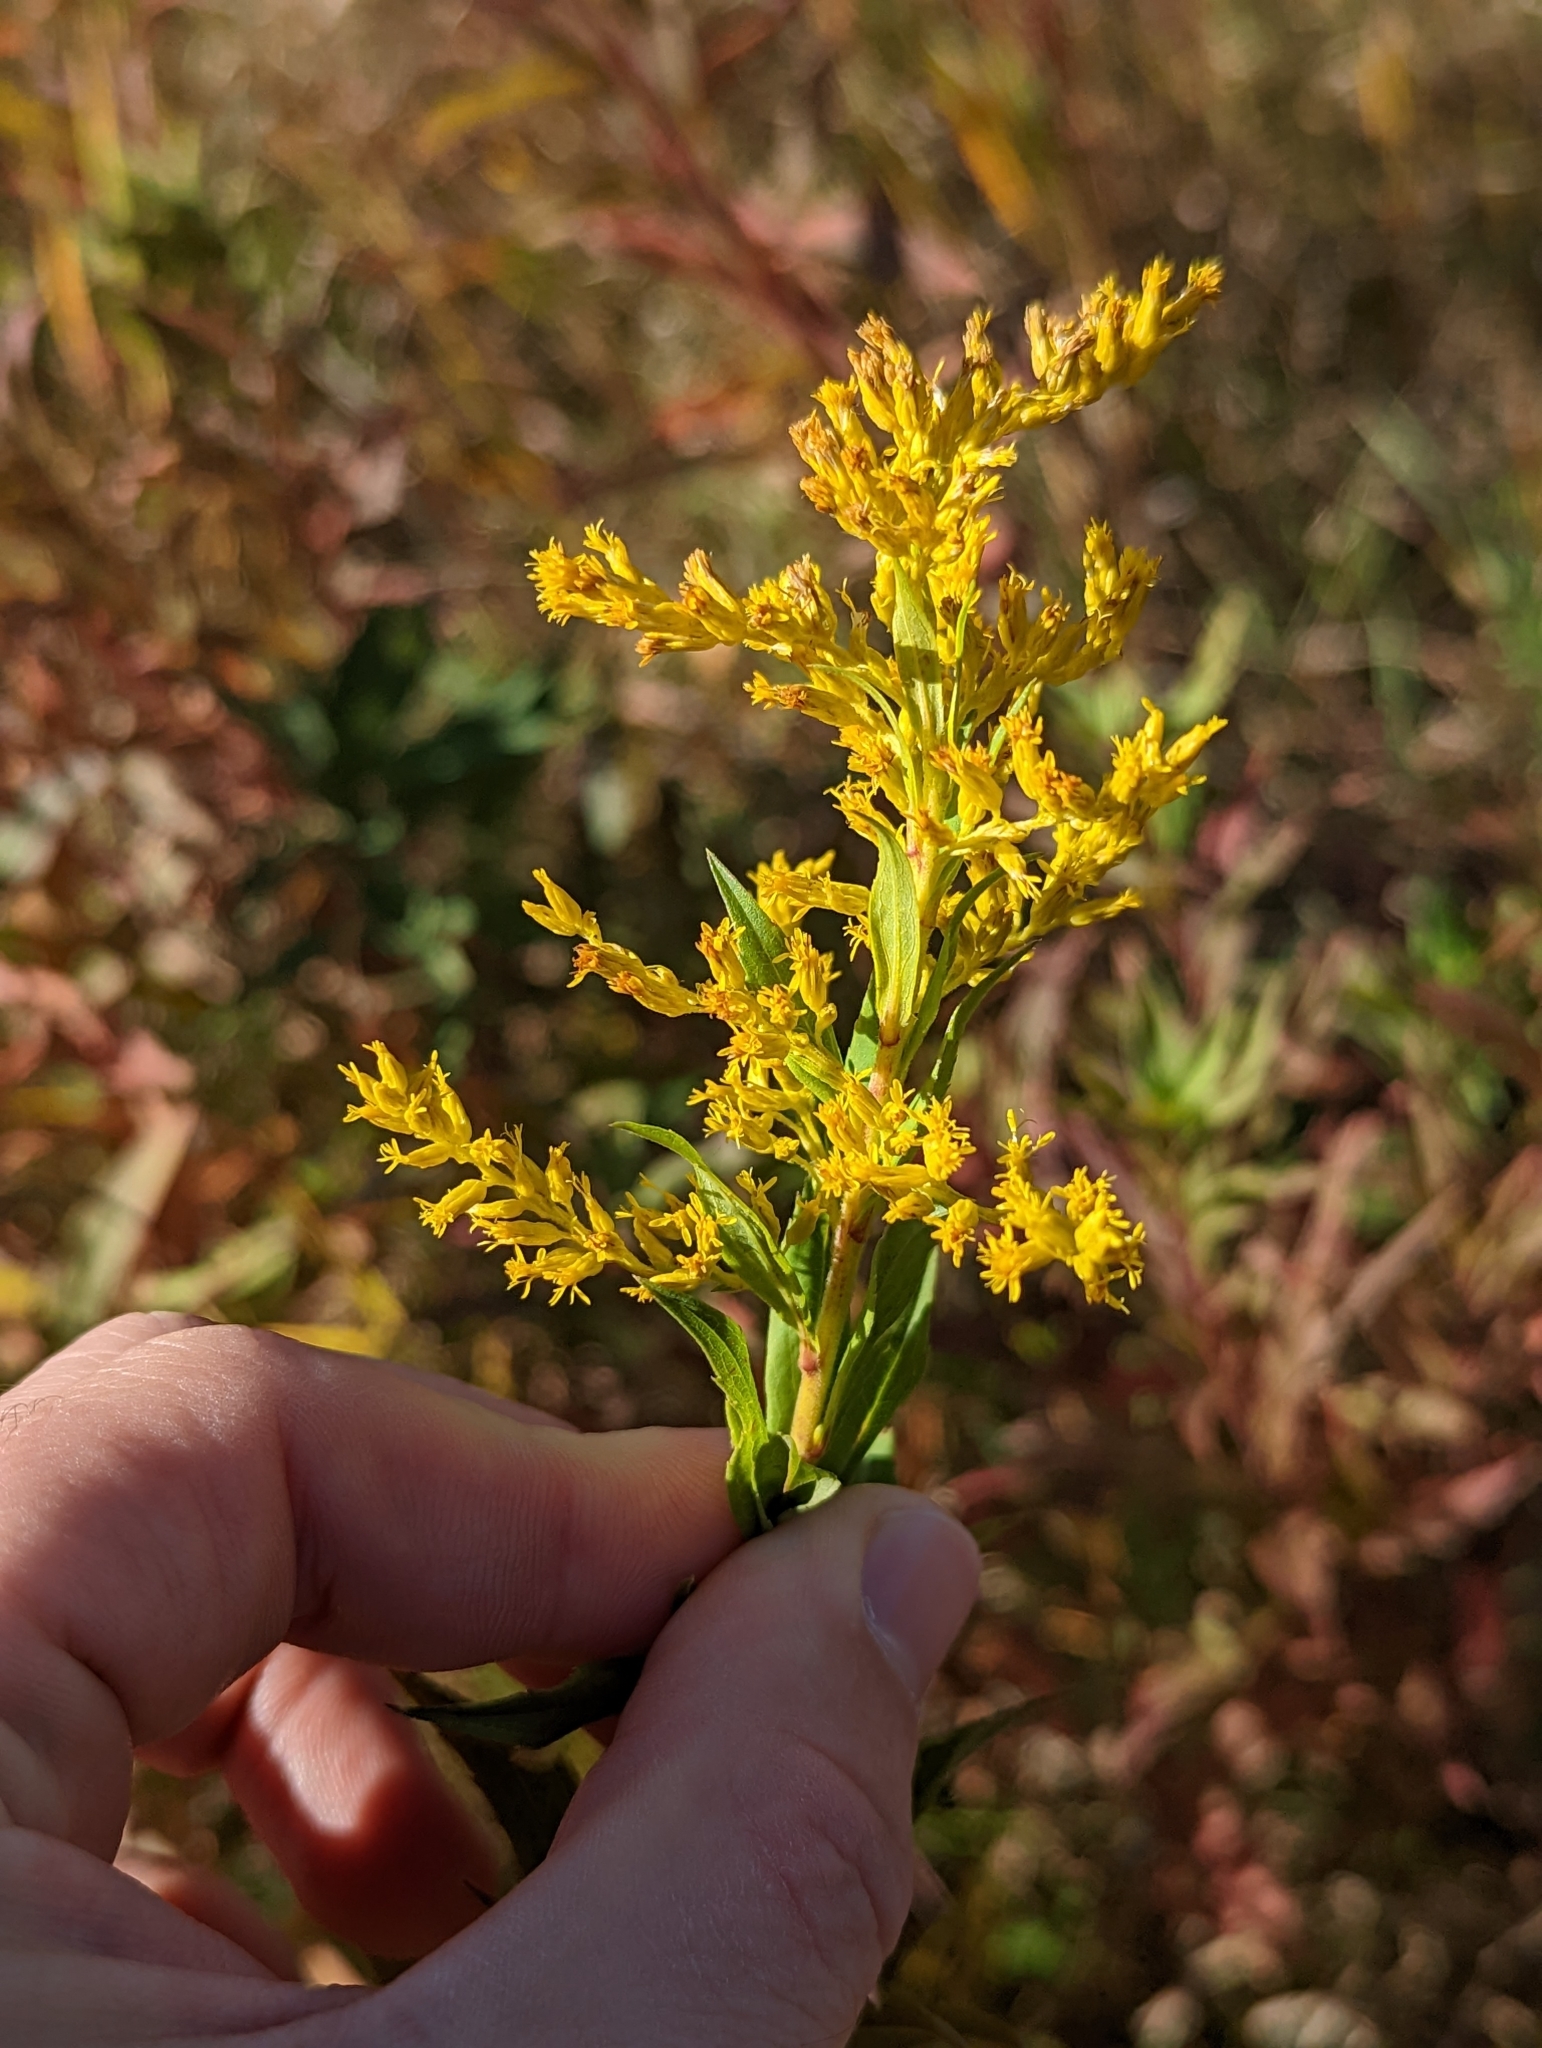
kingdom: Plantae
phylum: Tracheophyta
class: Magnoliopsida
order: Asterales
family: Asteraceae
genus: Solidago
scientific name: Solidago lepida
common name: Western canada goldenrod
